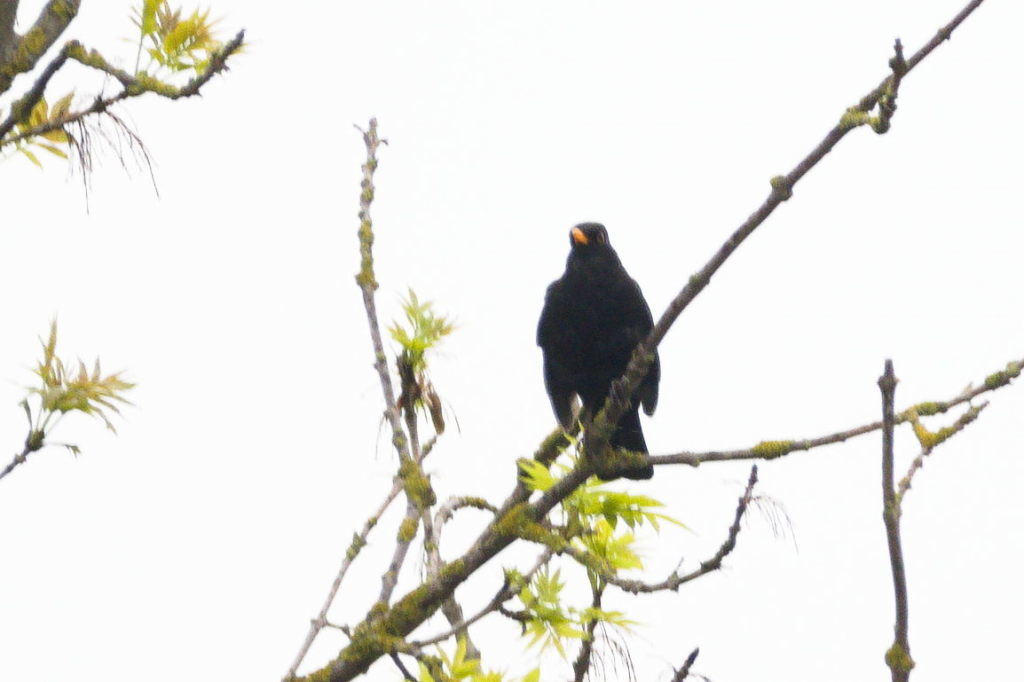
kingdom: Animalia
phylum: Chordata
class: Aves
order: Passeriformes
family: Turdidae
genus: Turdus
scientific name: Turdus merula
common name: Common blackbird
